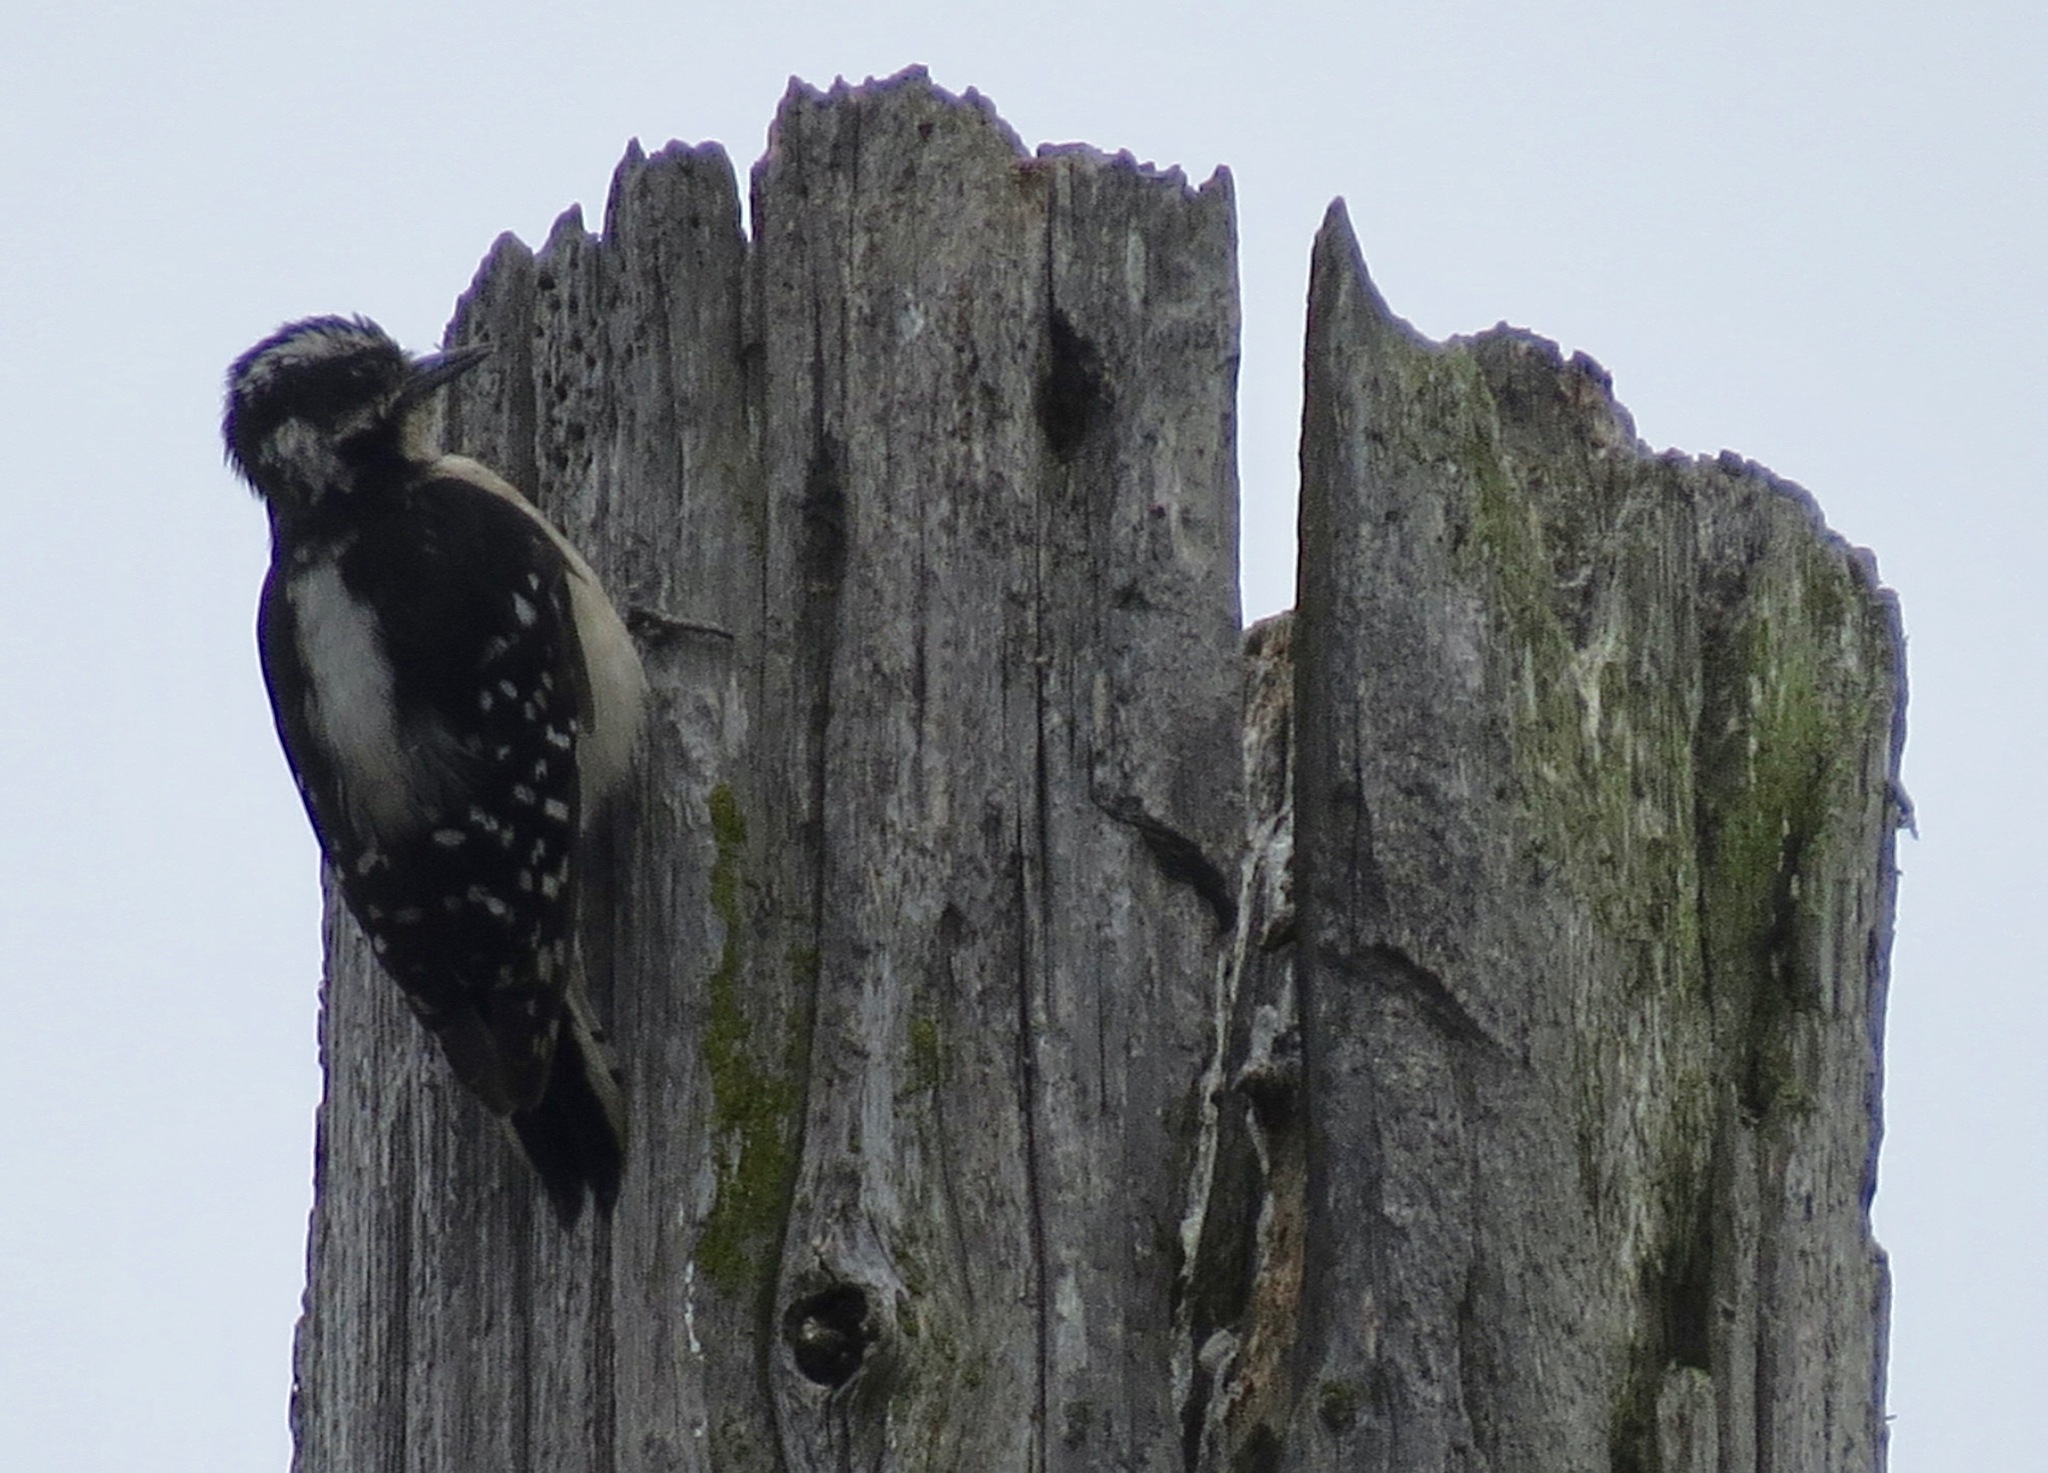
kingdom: Animalia
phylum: Chordata
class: Aves
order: Piciformes
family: Picidae
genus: Dryobates
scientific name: Dryobates pubescens
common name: Downy woodpecker
